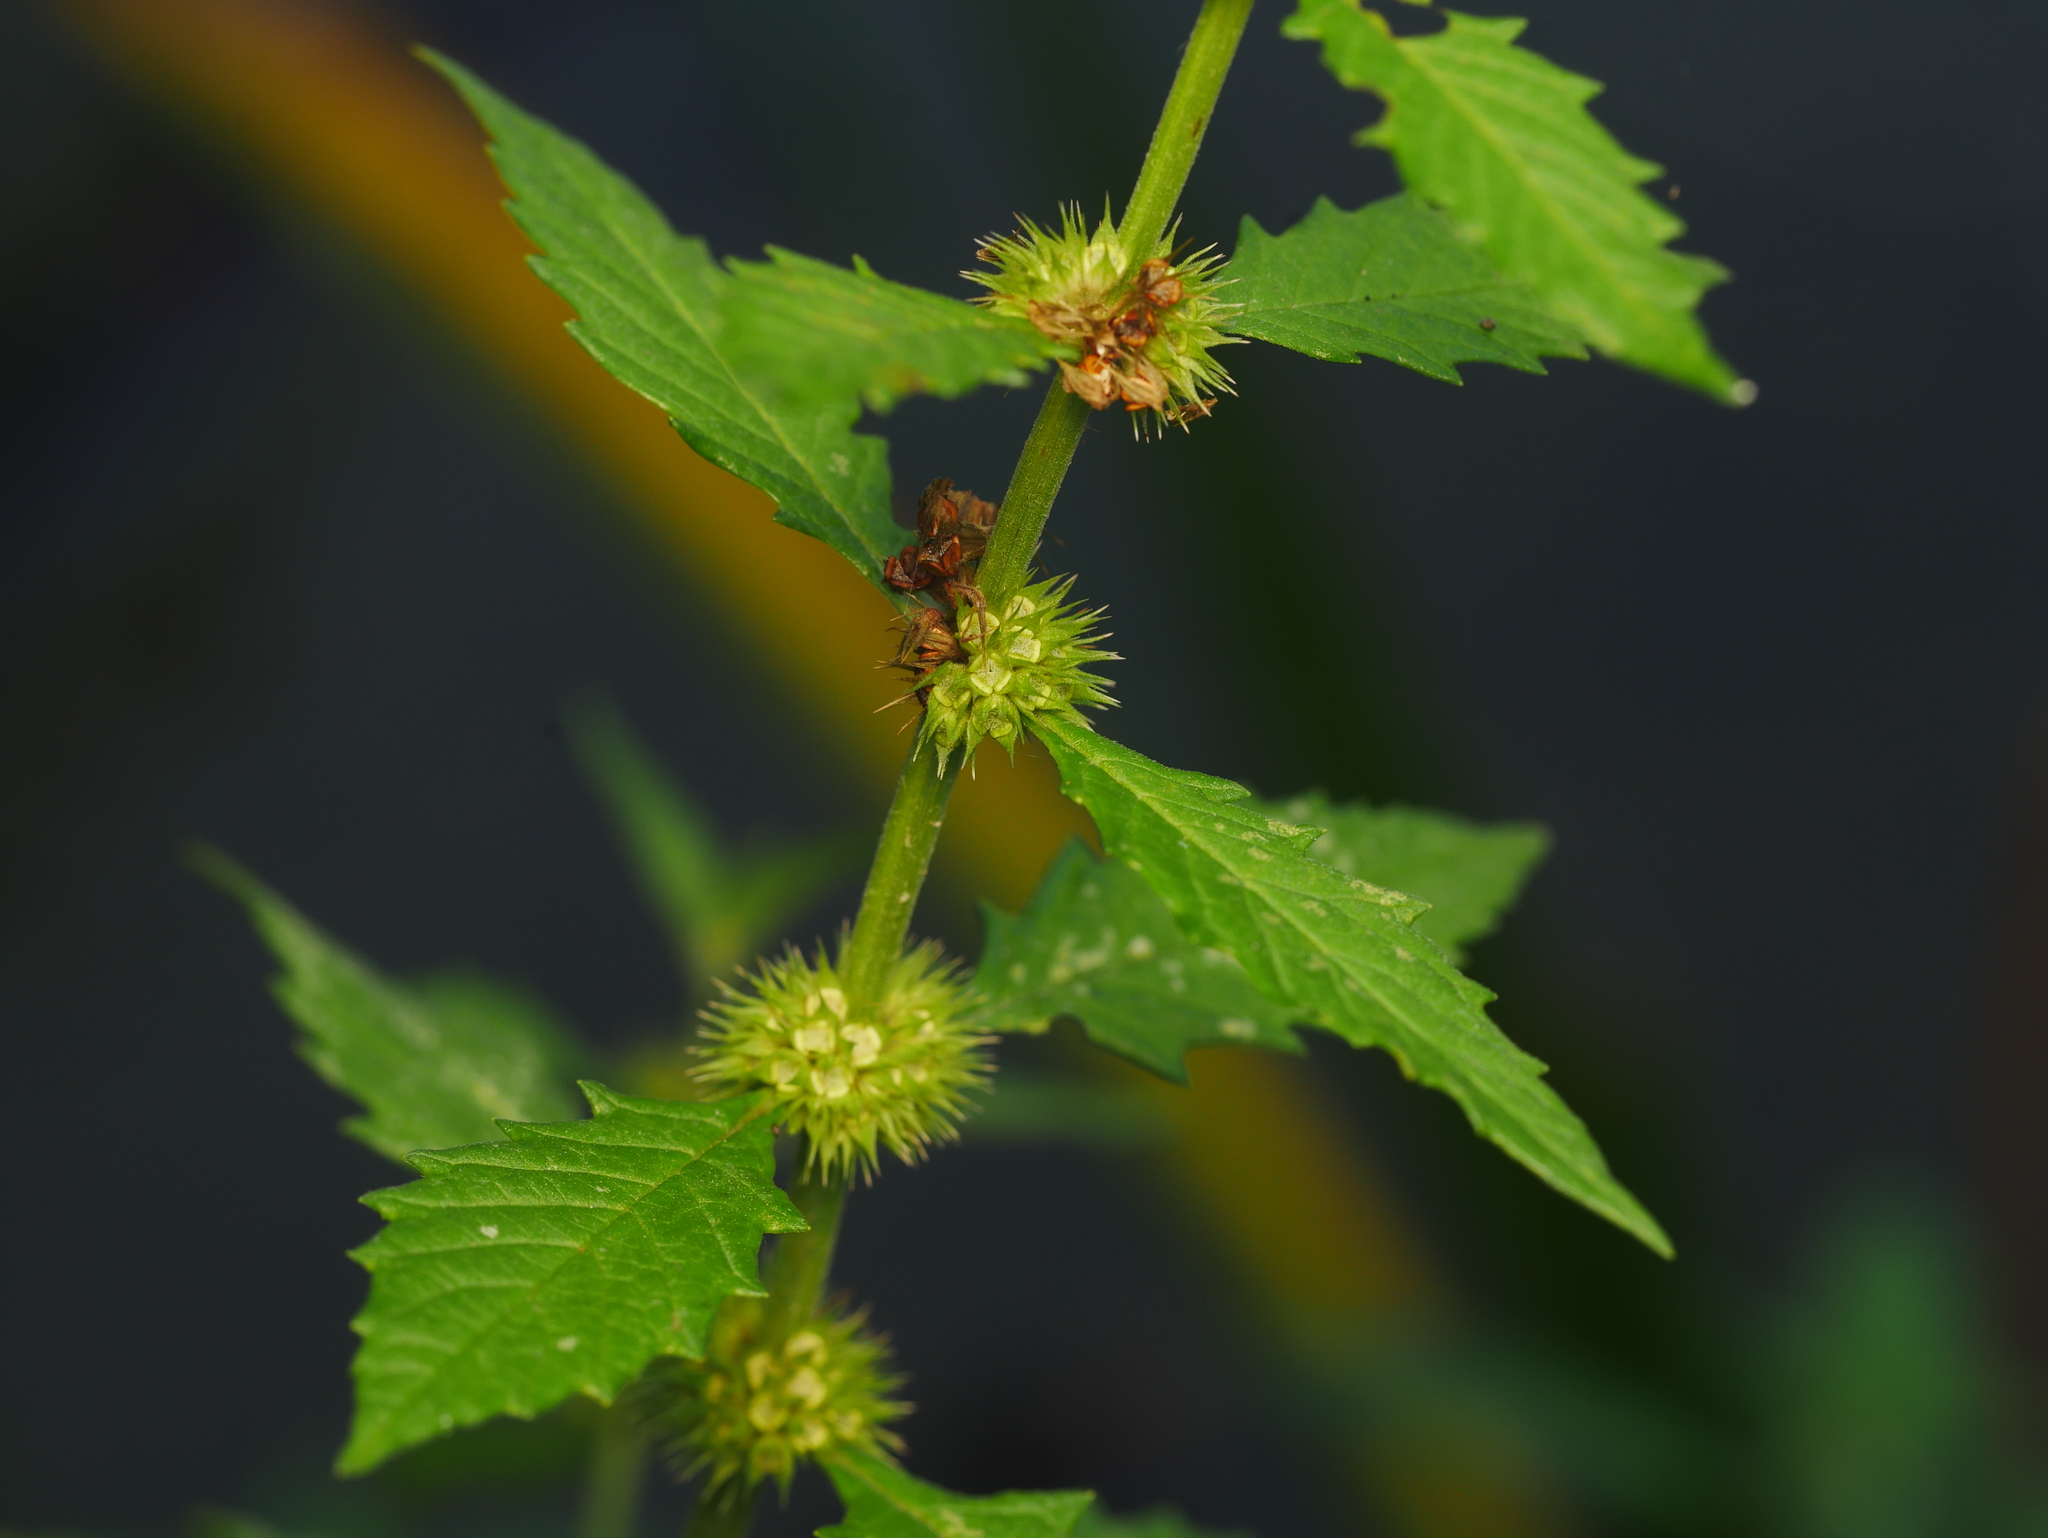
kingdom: Plantae
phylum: Tracheophyta
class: Magnoliopsida
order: Lamiales
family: Lamiaceae
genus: Lycopus
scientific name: Lycopus europaeus
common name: European bugleweed
